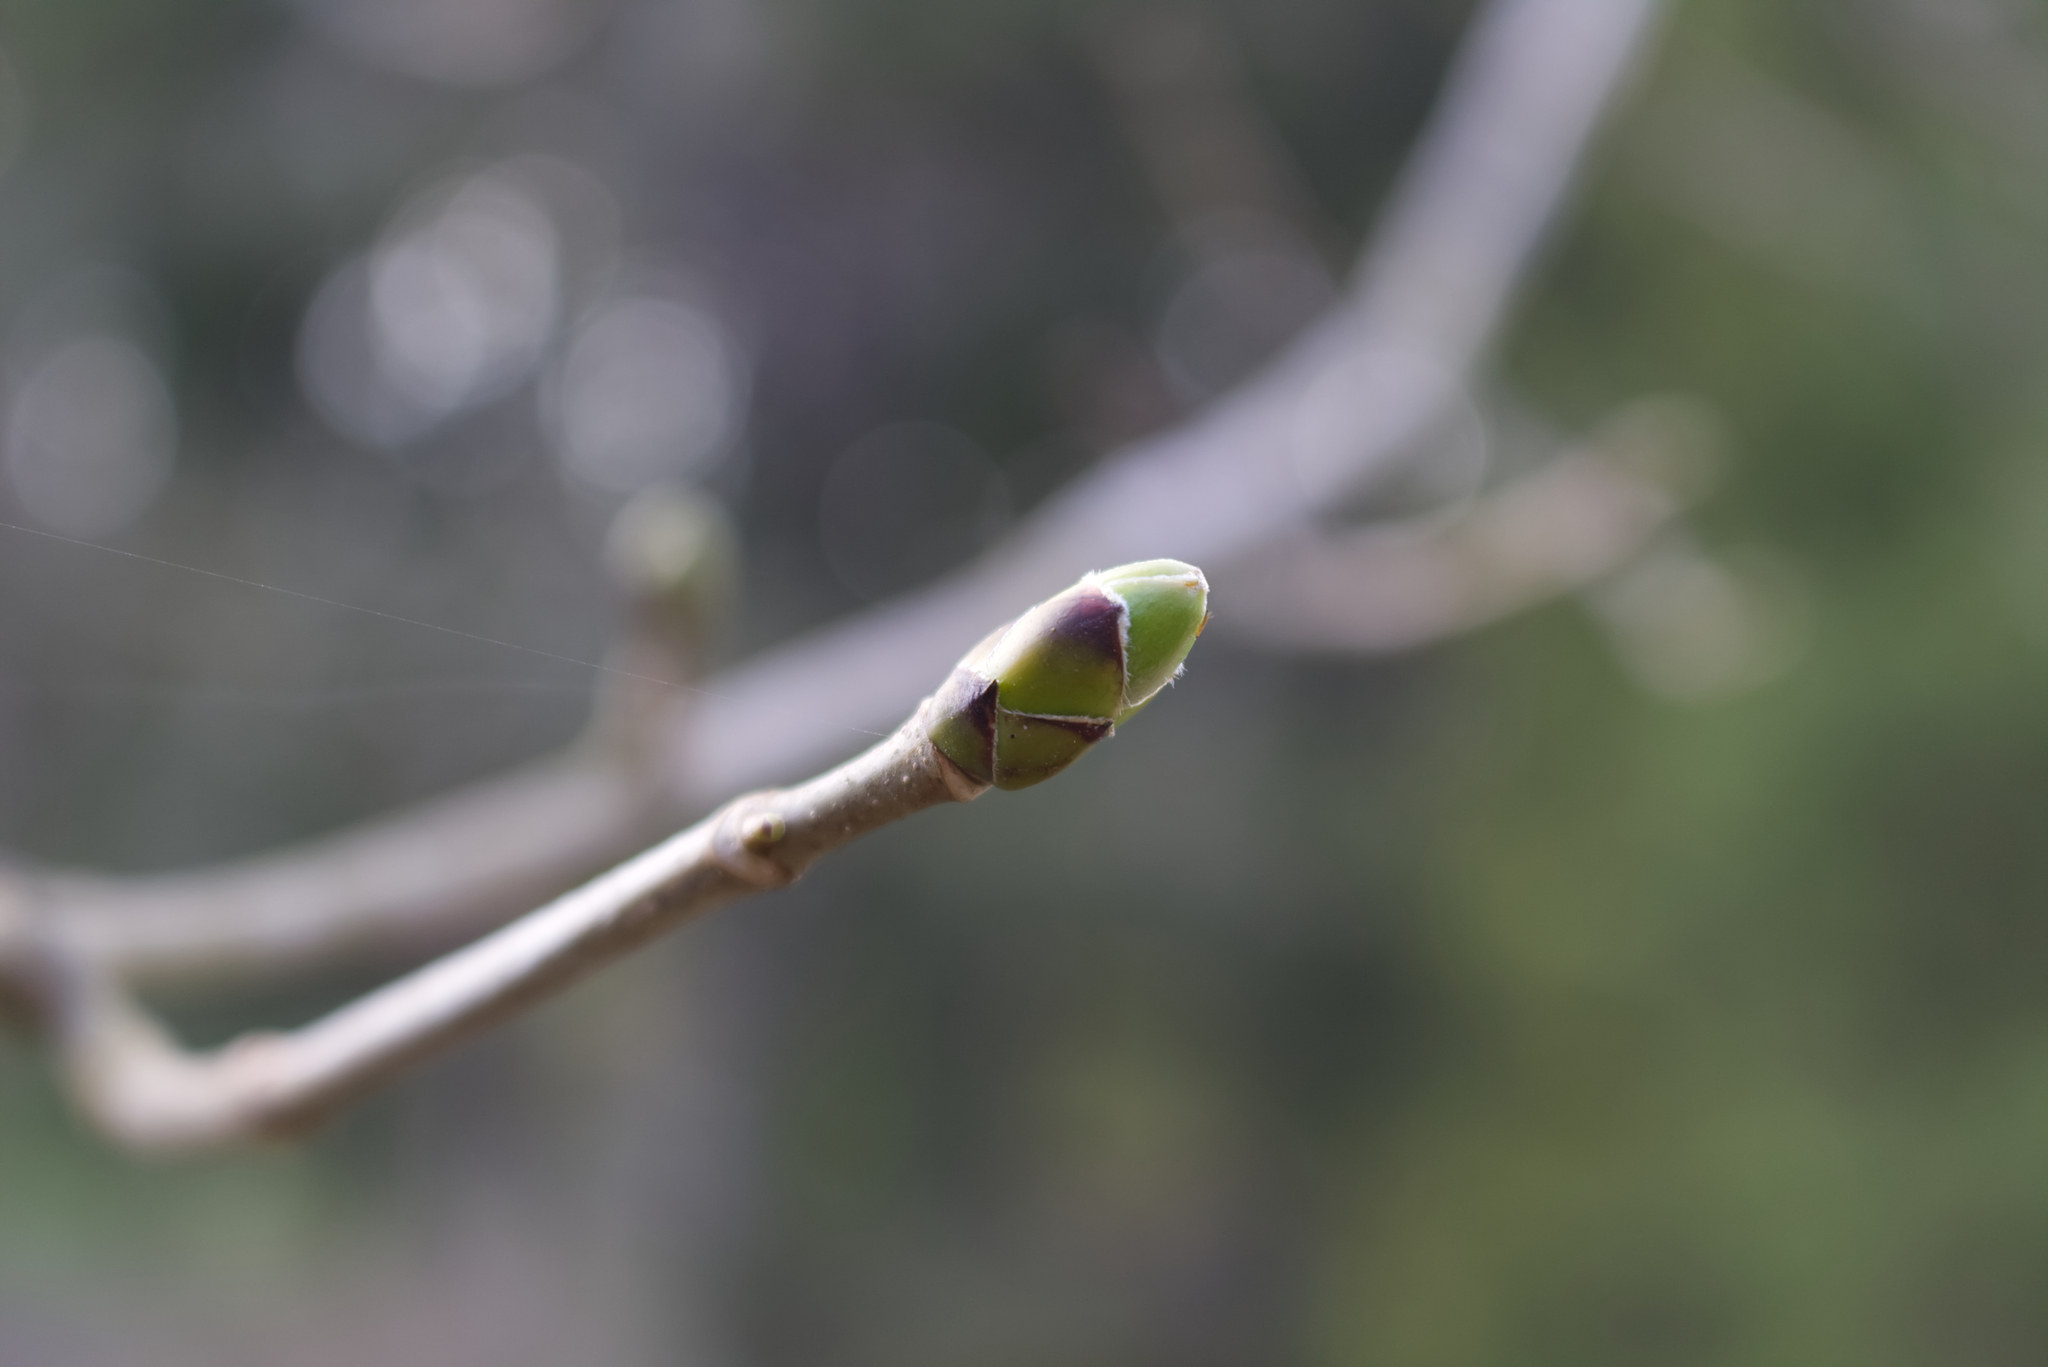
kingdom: Plantae
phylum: Tracheophyta
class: Magnoliopsida
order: Sapindales
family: Sapindaceae
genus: Acer
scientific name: Acer pseudoplatanus
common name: Sycamore
